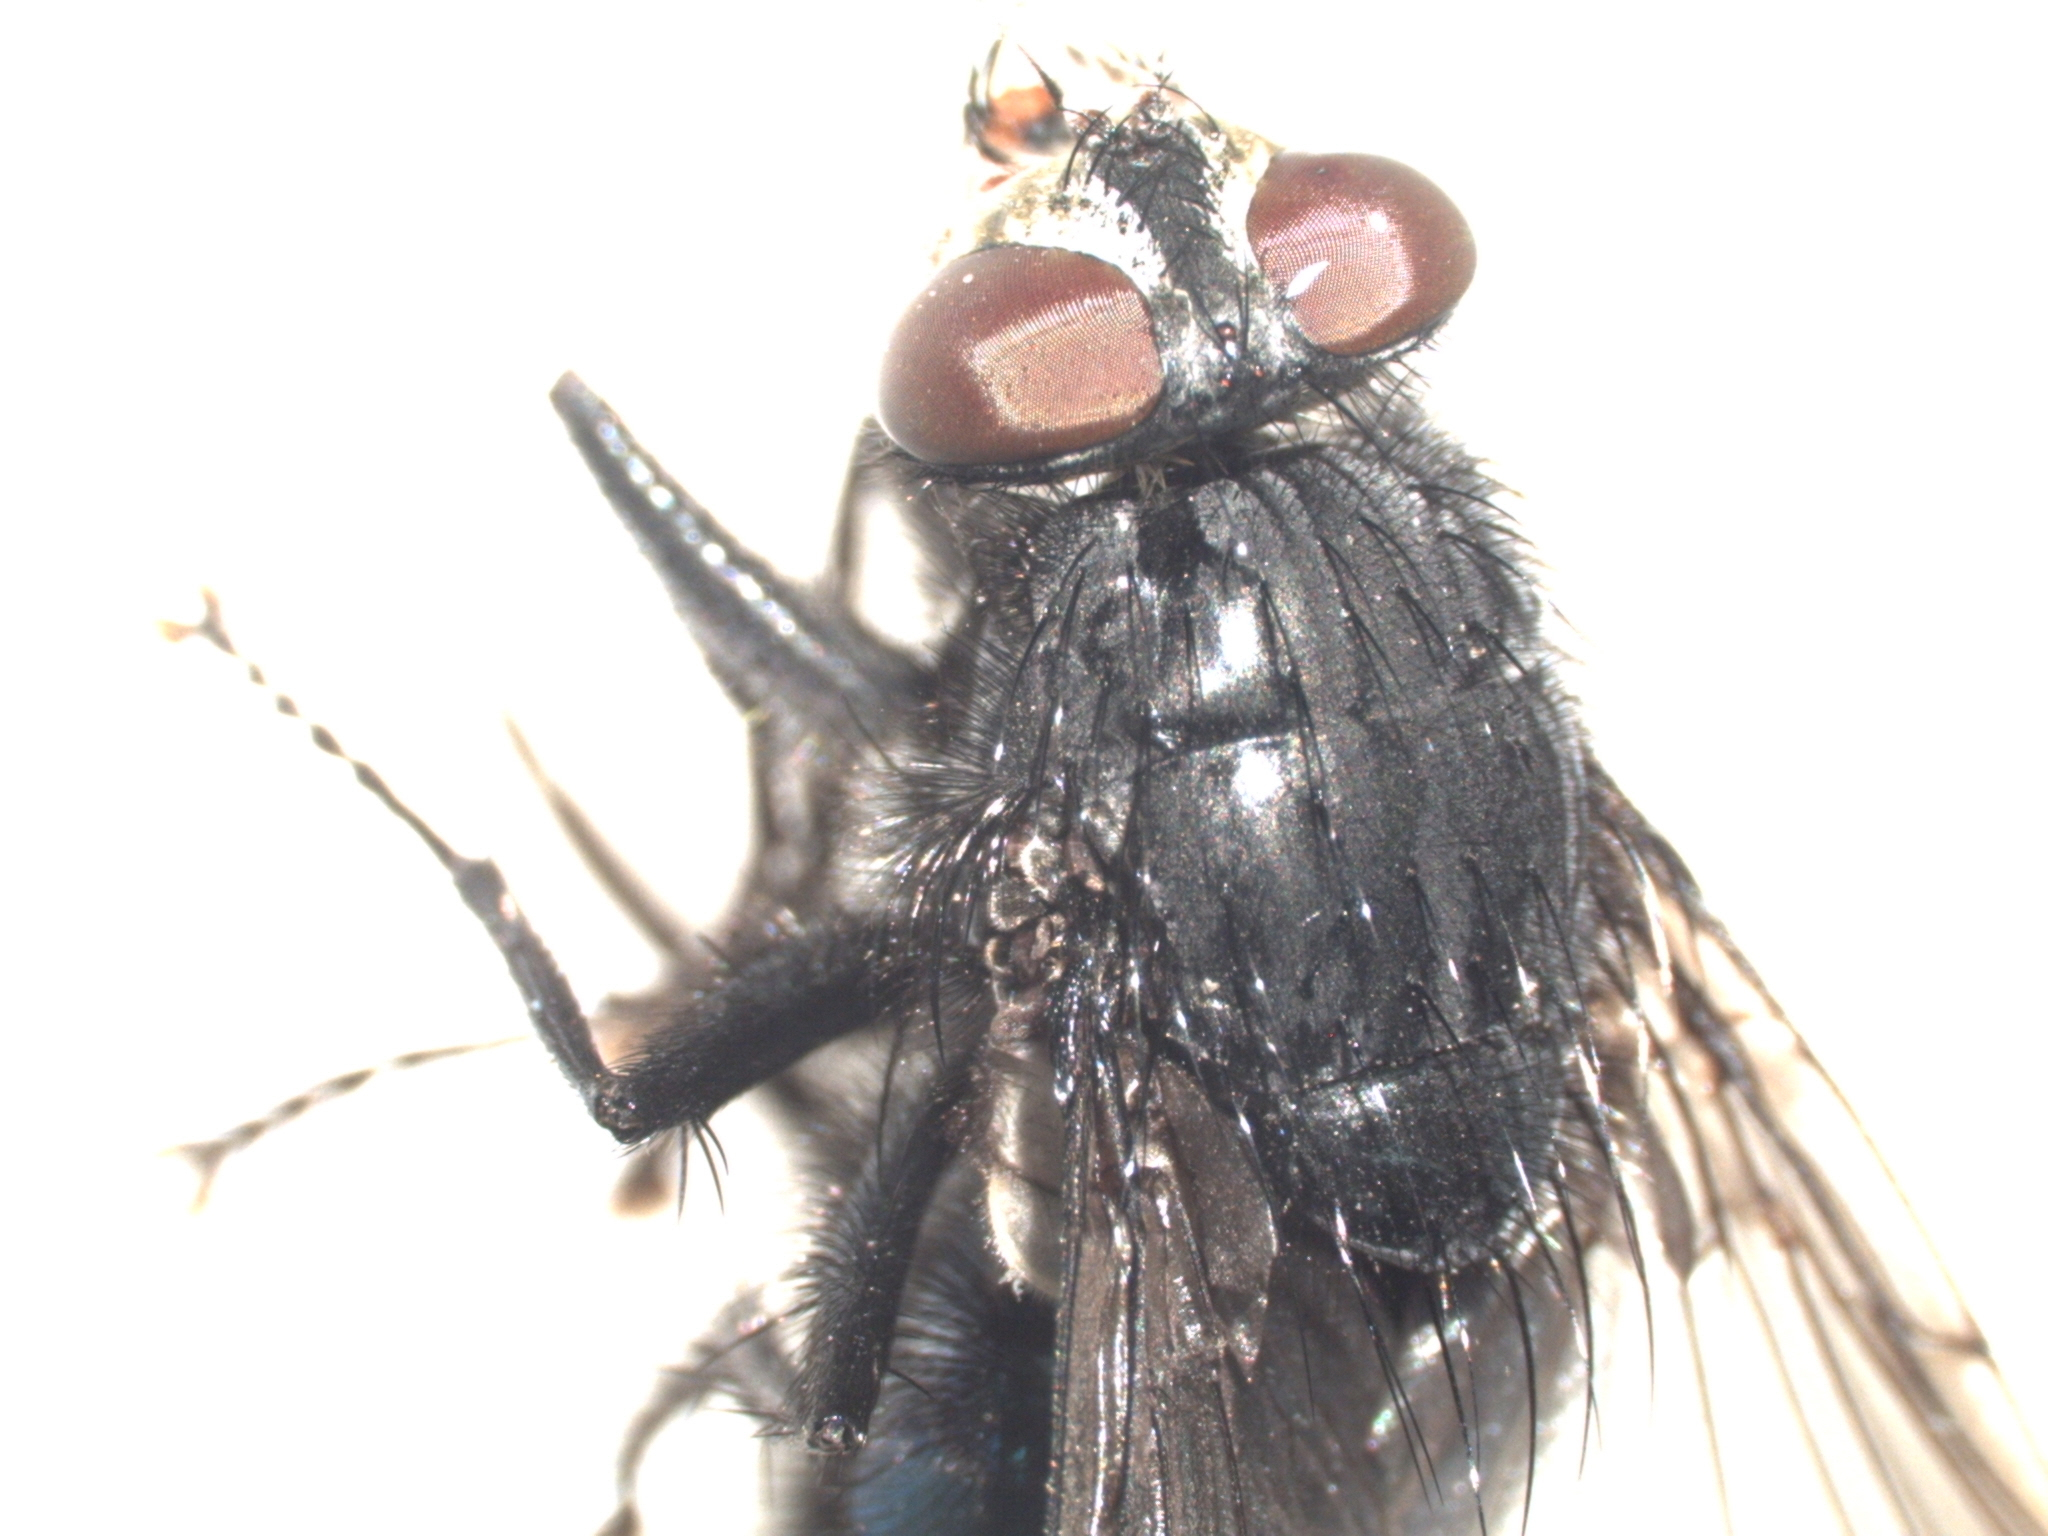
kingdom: Animalia
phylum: Arthropoda
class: Insecta
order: Diptera
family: Calliphoridae
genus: Cynomya
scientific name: Cynomya cadaverina
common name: Shiny blue bottle fly
